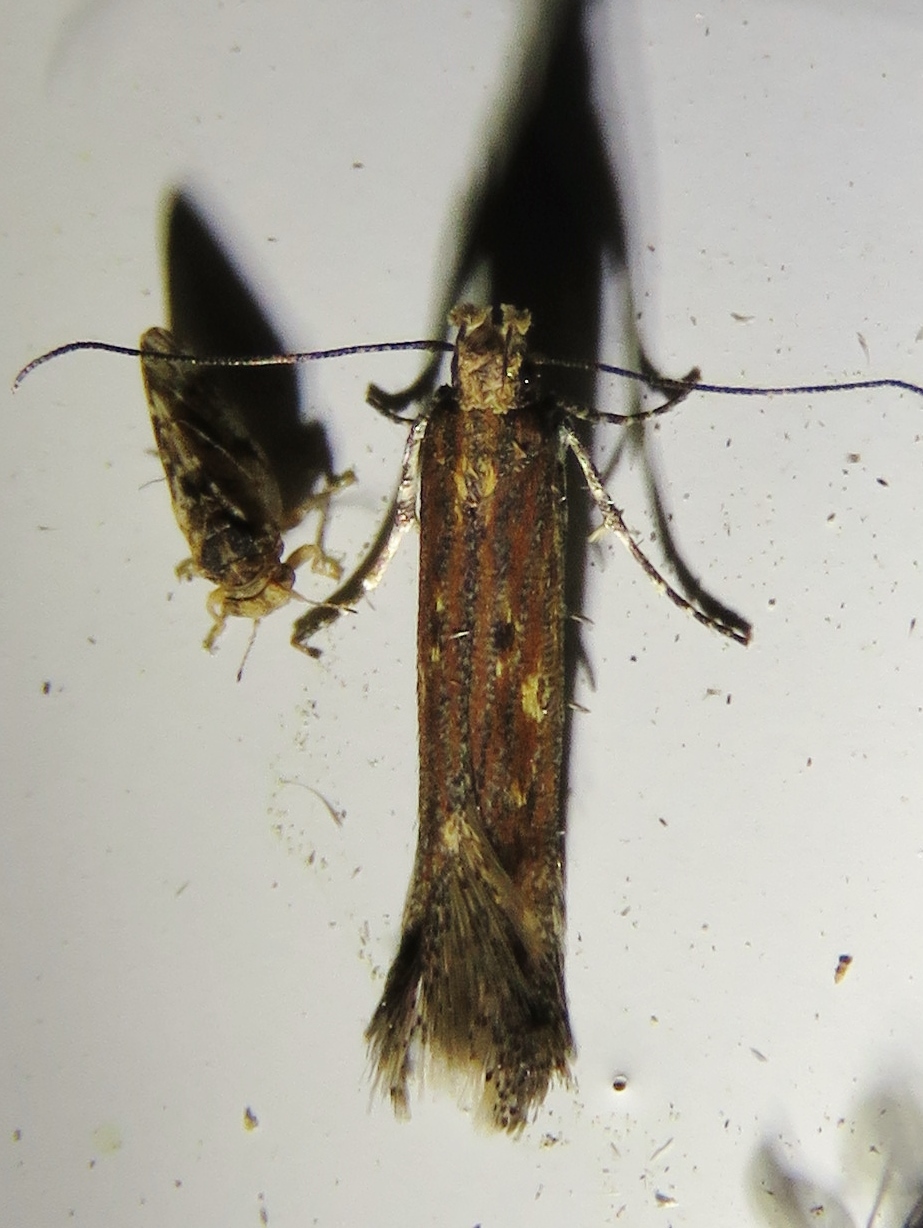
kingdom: Animalia
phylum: Arthropoda
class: Insecta
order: Lepidoptera
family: Gelechiidae
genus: Gnorimoschema
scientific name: Gnorimoschema saphirinella
